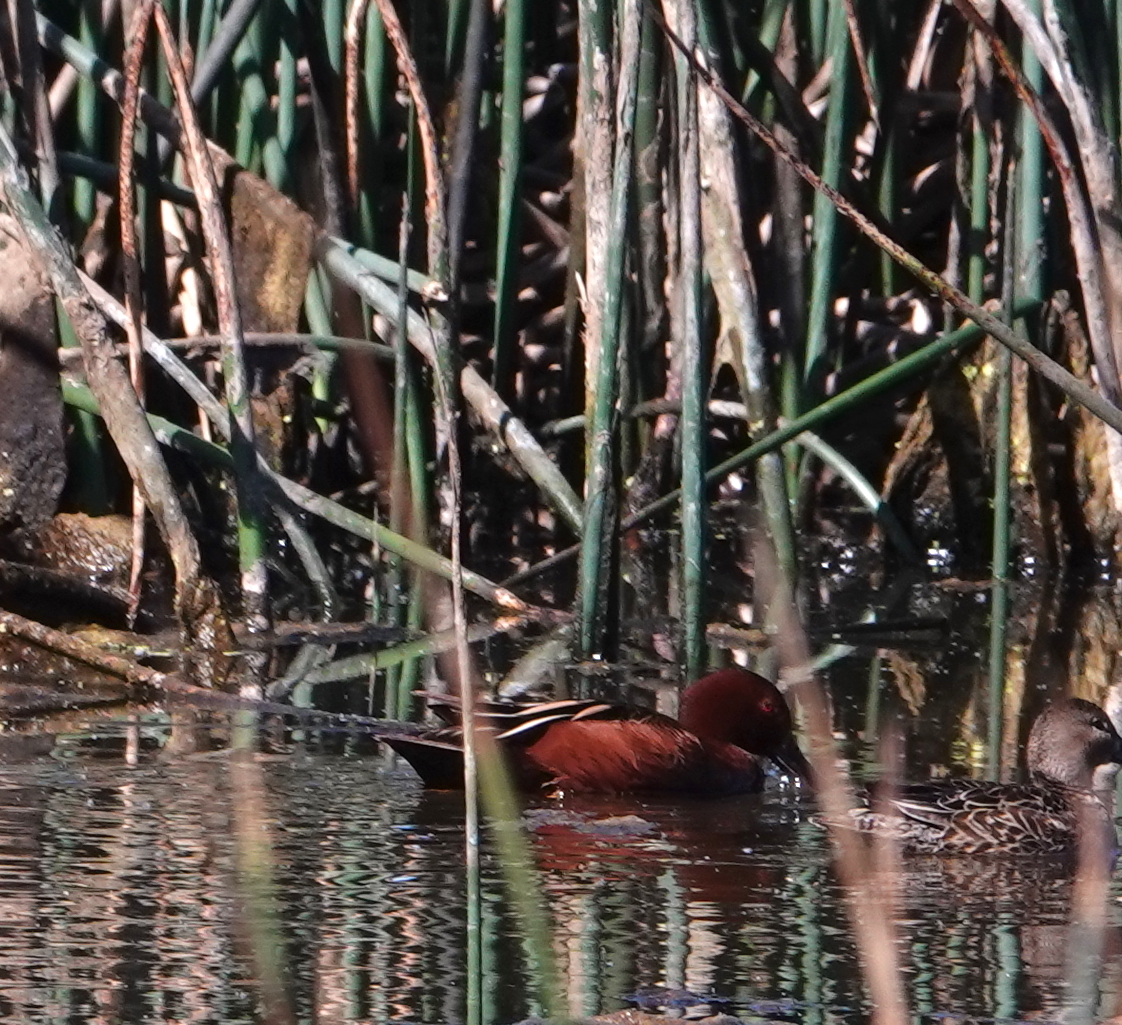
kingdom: Animalia
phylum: Chordata
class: Aves
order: Anseriformes
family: Anatidae
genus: Spatula
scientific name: Spatula cyanoptera
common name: Cinnamon teal
